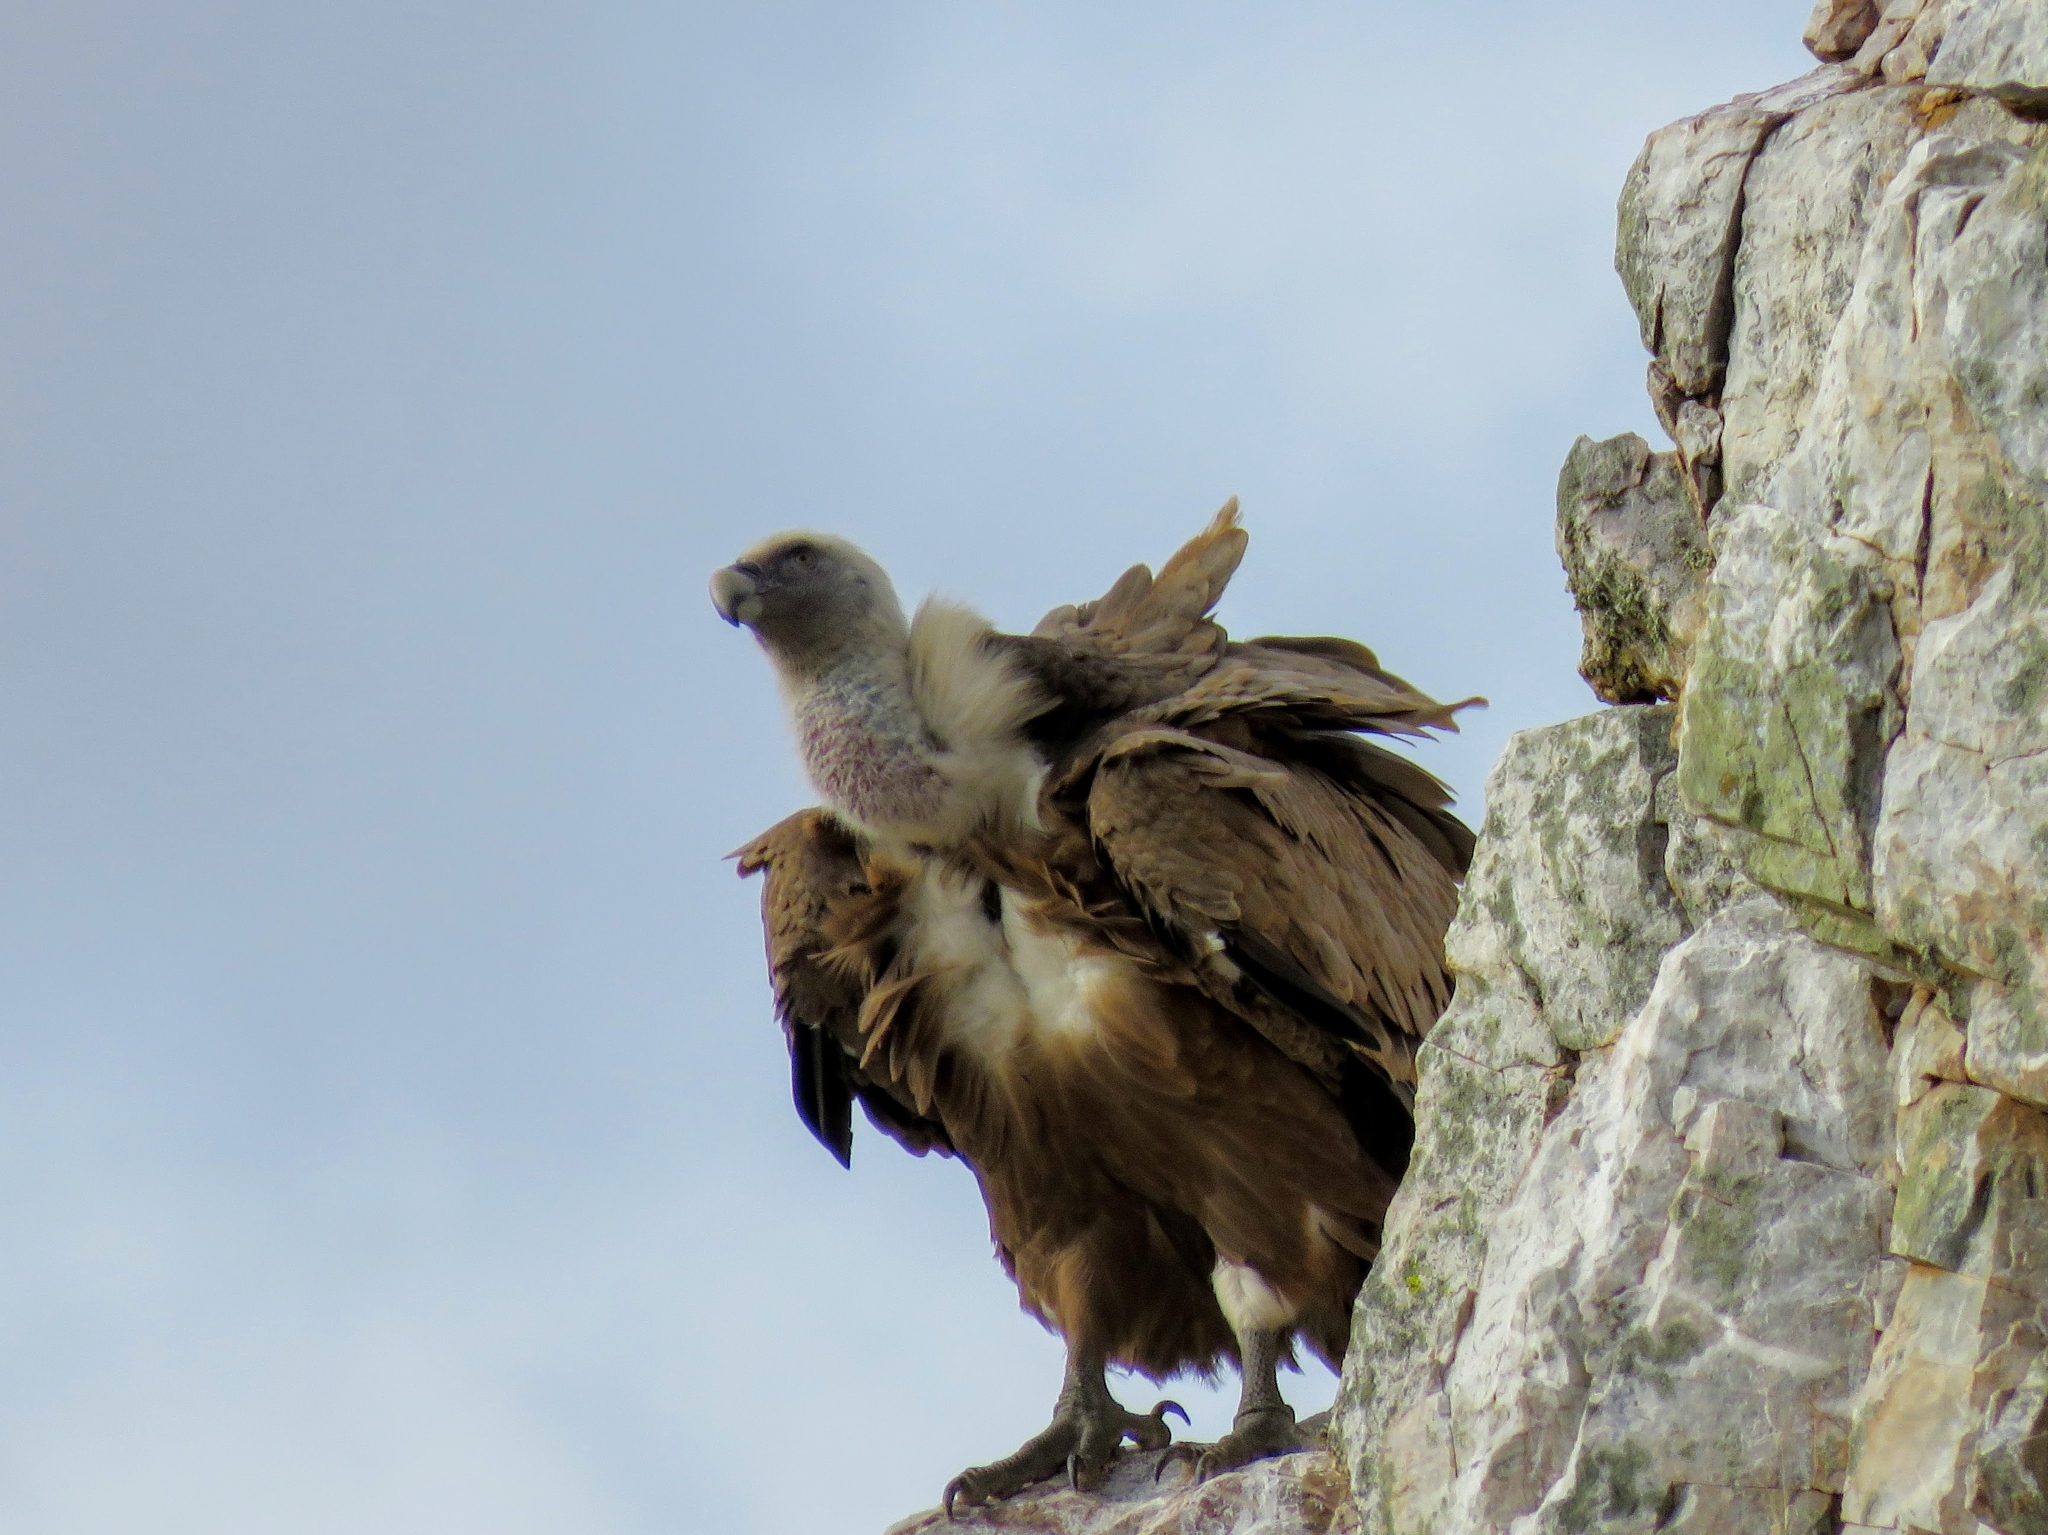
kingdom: Animalia
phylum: Chordata
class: Aves
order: Accipitriformes
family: Accipitridae
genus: Gyps
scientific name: Gyps fulvus
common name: Griffon vulture
